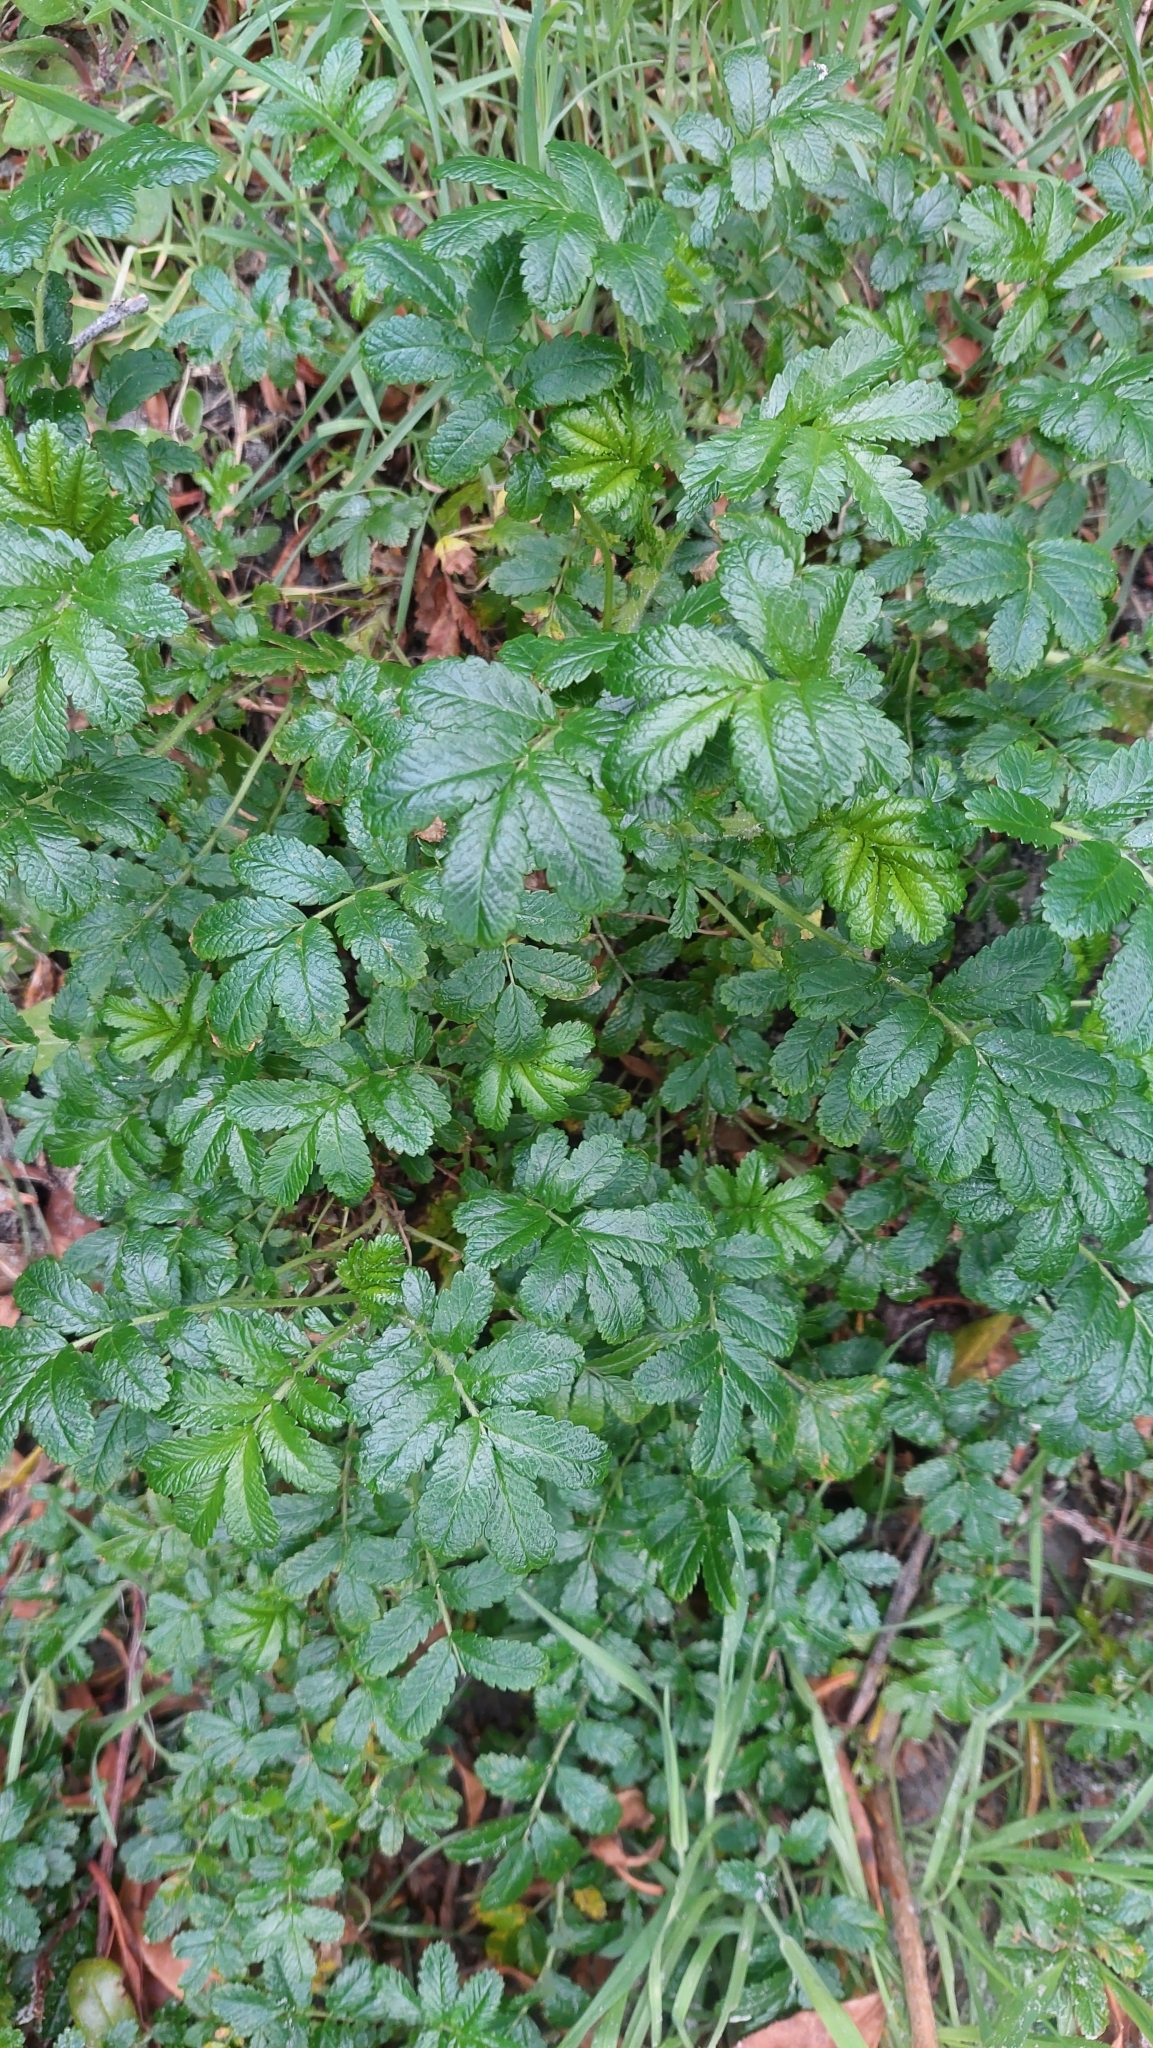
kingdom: Plantae
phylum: Tracheophyta
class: Magnoliopsida
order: Rosales
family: Rosaceae
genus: Acaena
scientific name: Acaena pallida
